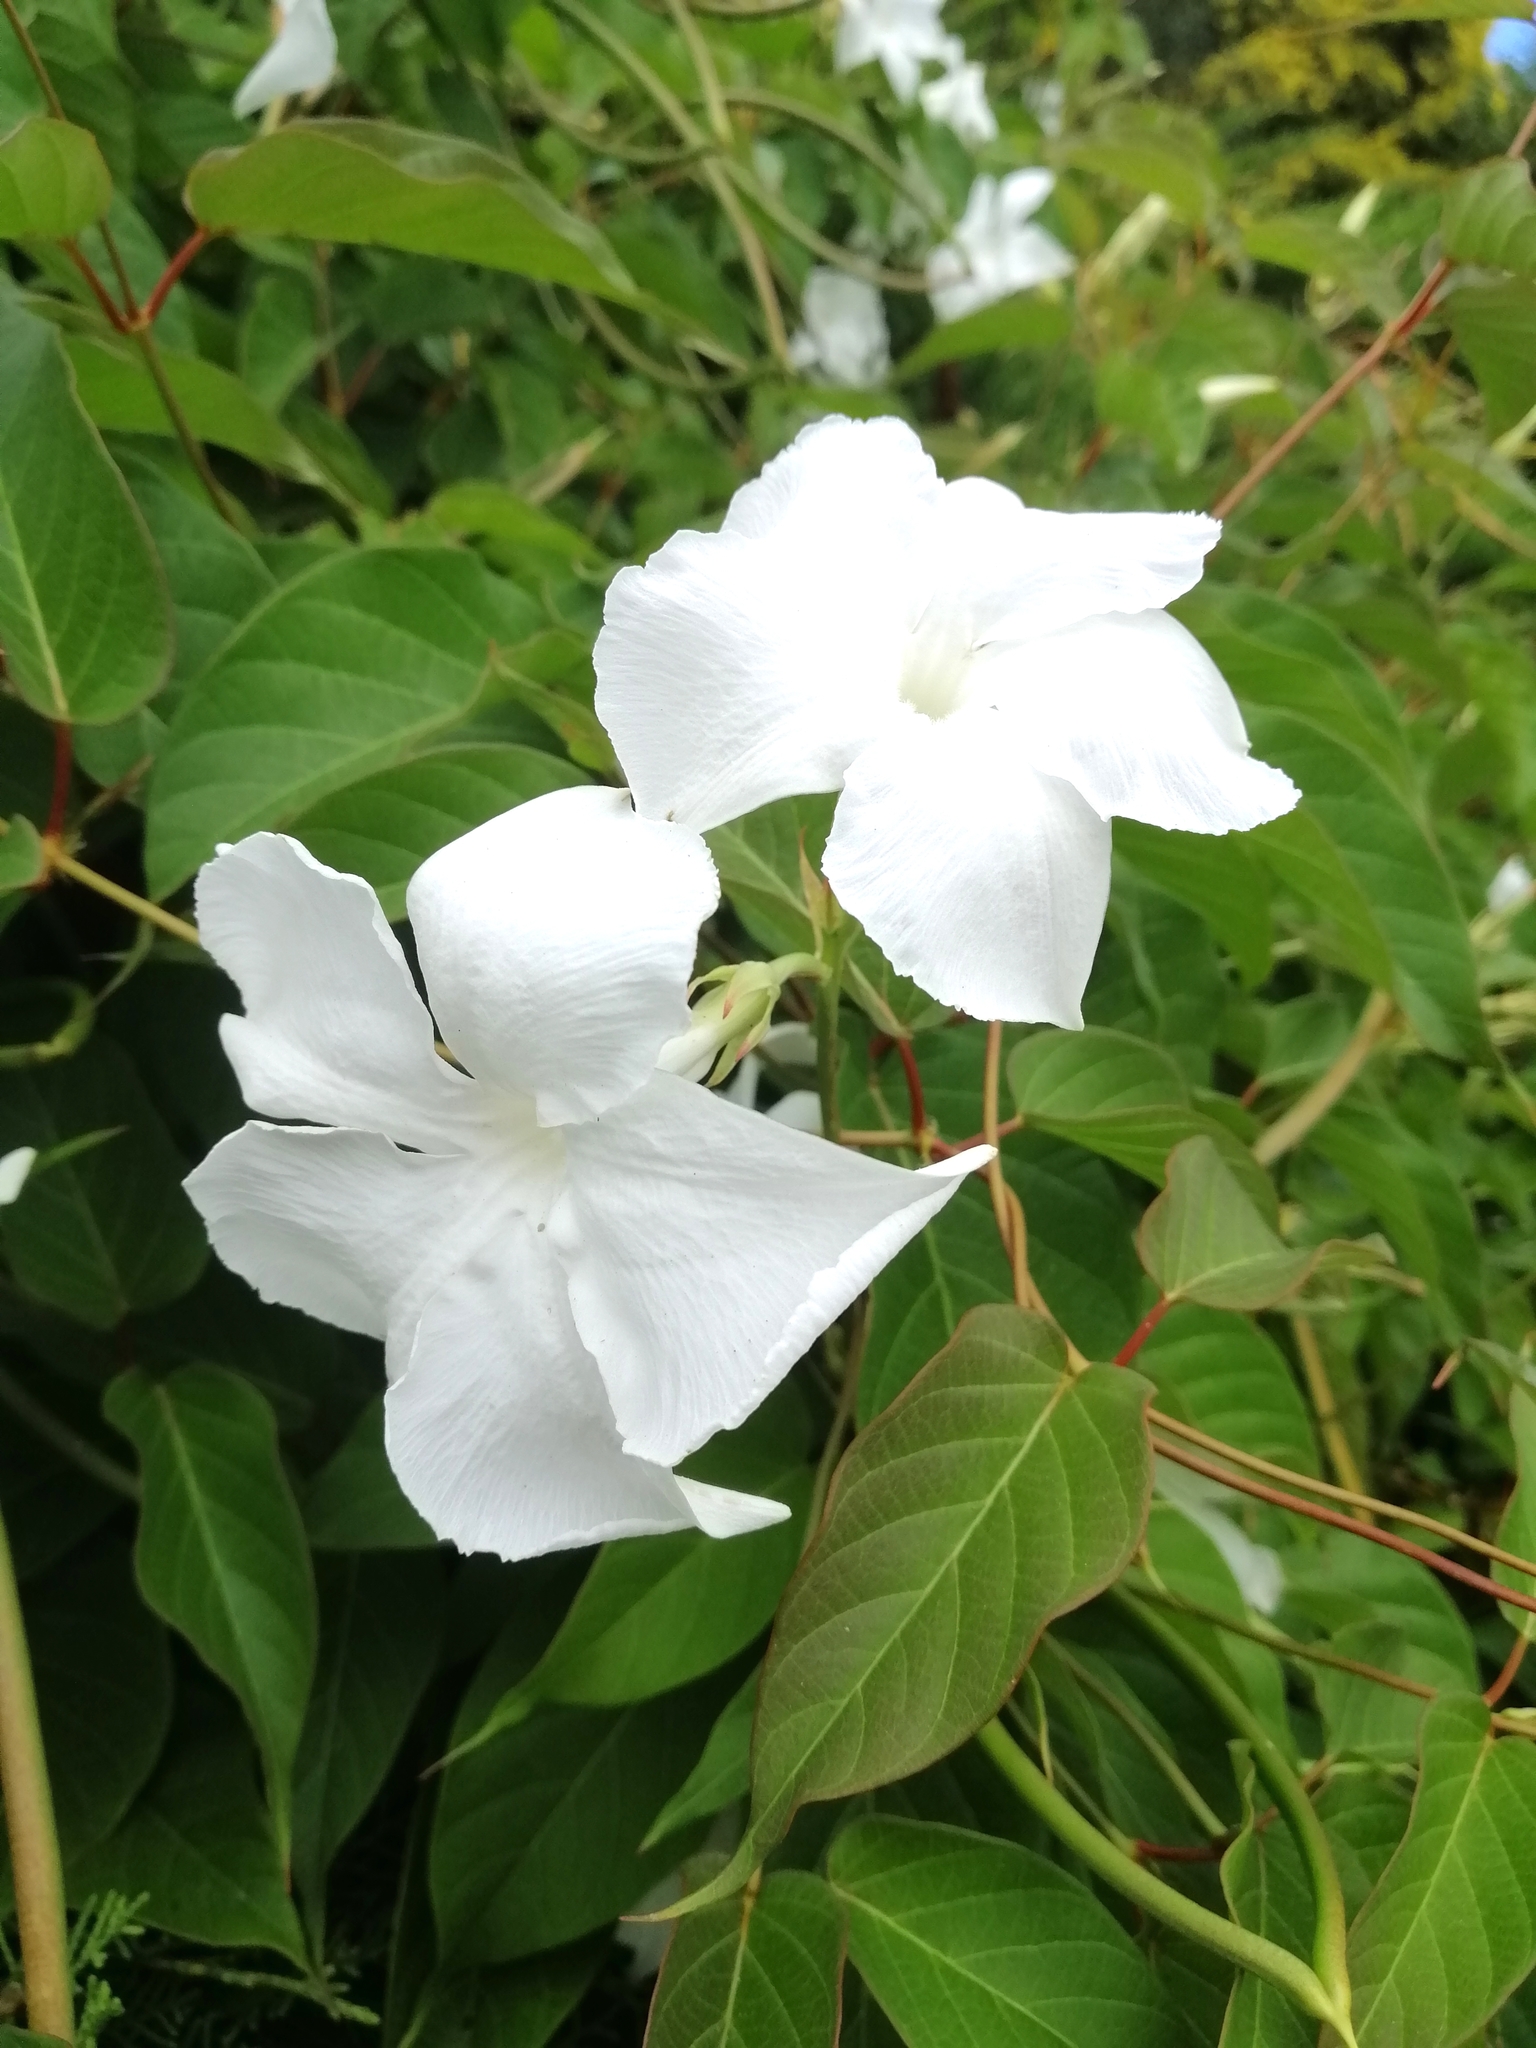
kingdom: Plantae
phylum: Tracheophyta
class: Magnoliopsida
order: Gentianales
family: Apocynaceae
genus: Mandevilla
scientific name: Mandevilla laxa
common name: Chilean-jasmine
